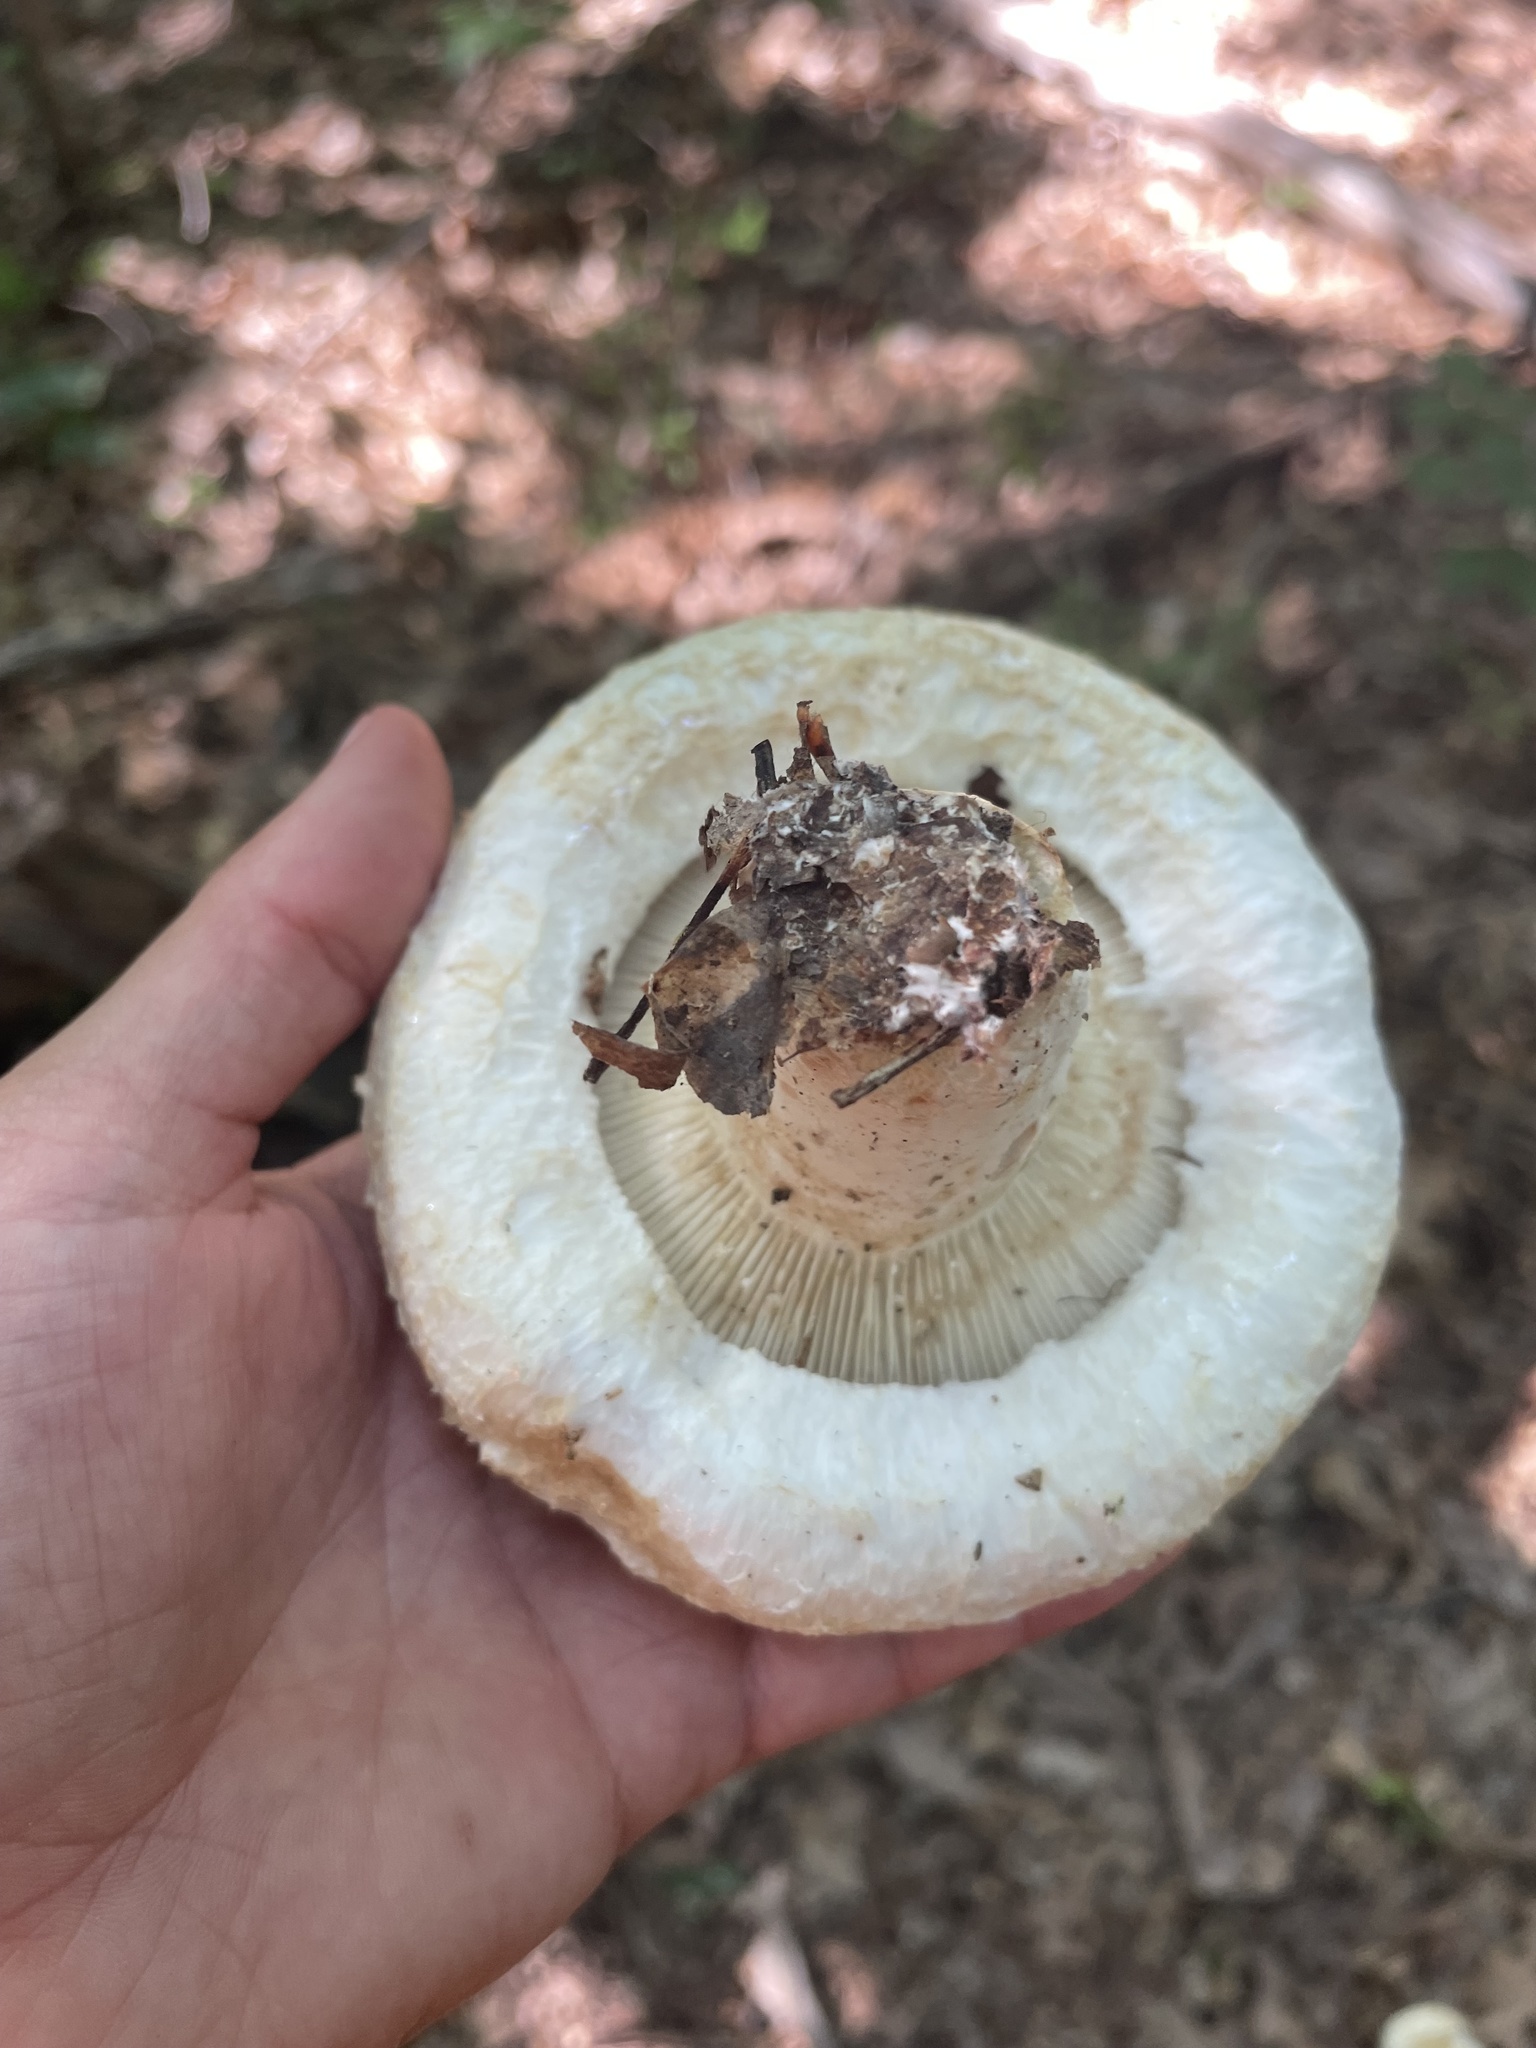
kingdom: Fungi
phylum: Basidiomycota
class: Agaricomycetes
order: Russulales
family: Russulaceae
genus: Lactifluus
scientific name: Lactifluus
